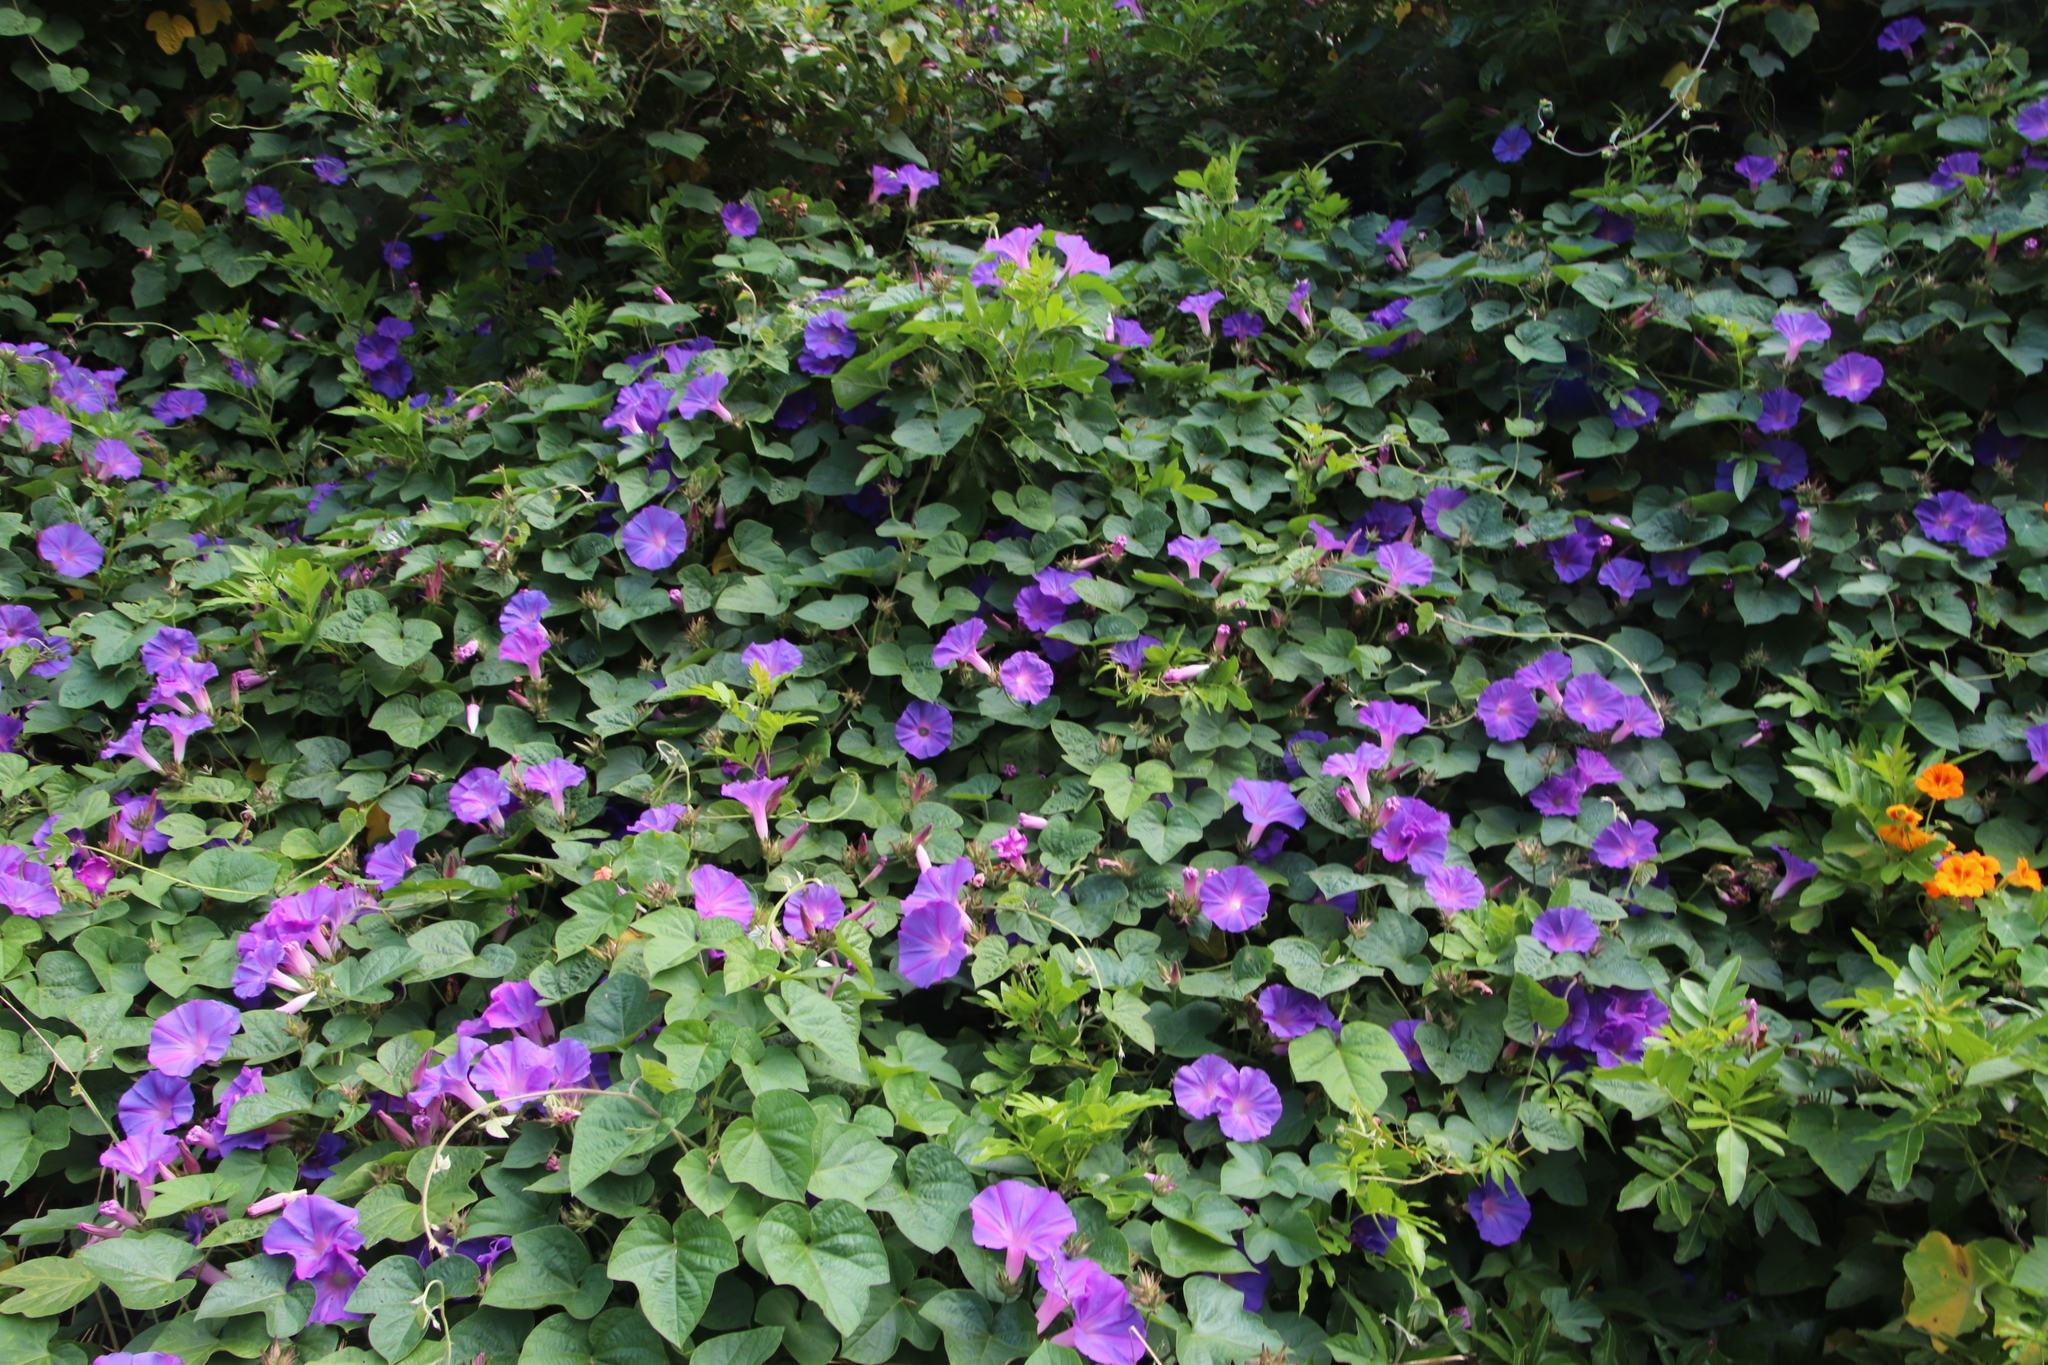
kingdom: Plantae
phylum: Tracheophyta
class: Magnoliopsida
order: Solanales
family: Convolvulaceae
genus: Ipomoea
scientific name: Ipomoea indica
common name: Blue dawnflower
